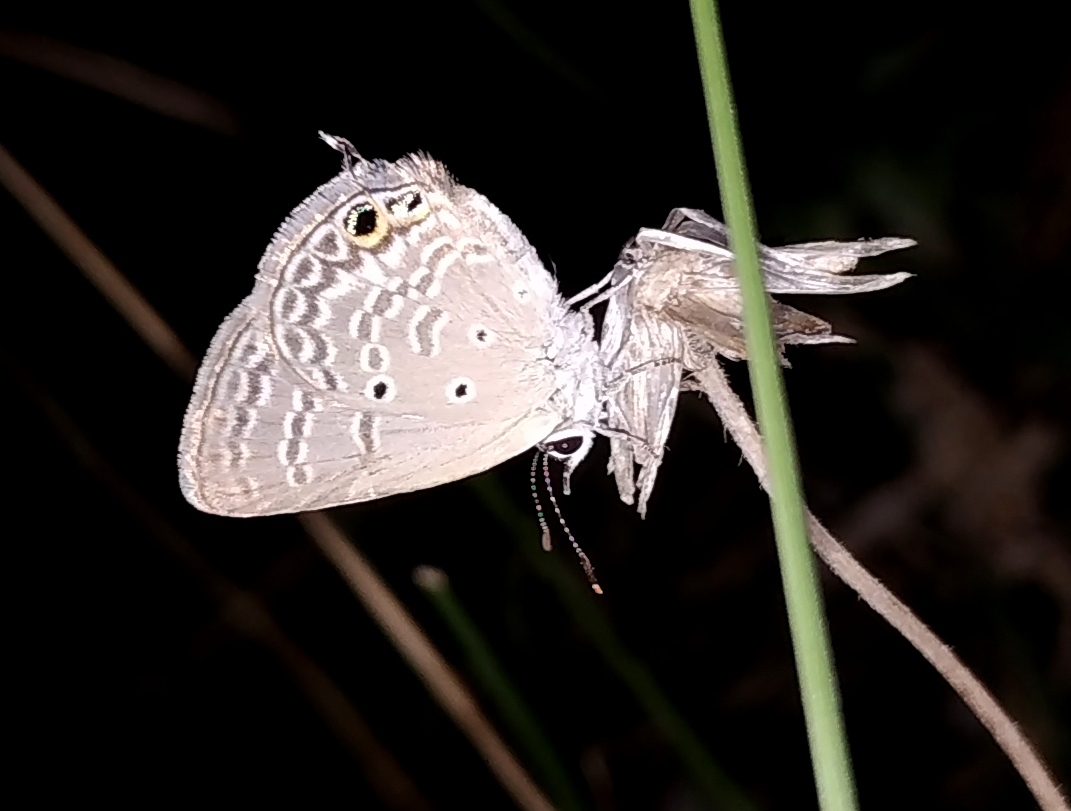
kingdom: Animalia
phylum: Arthropoda
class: Insecta
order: Lepidoptera
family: Lycaenidae
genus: Chilades
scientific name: Chilades parrhasius
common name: Small cupid
